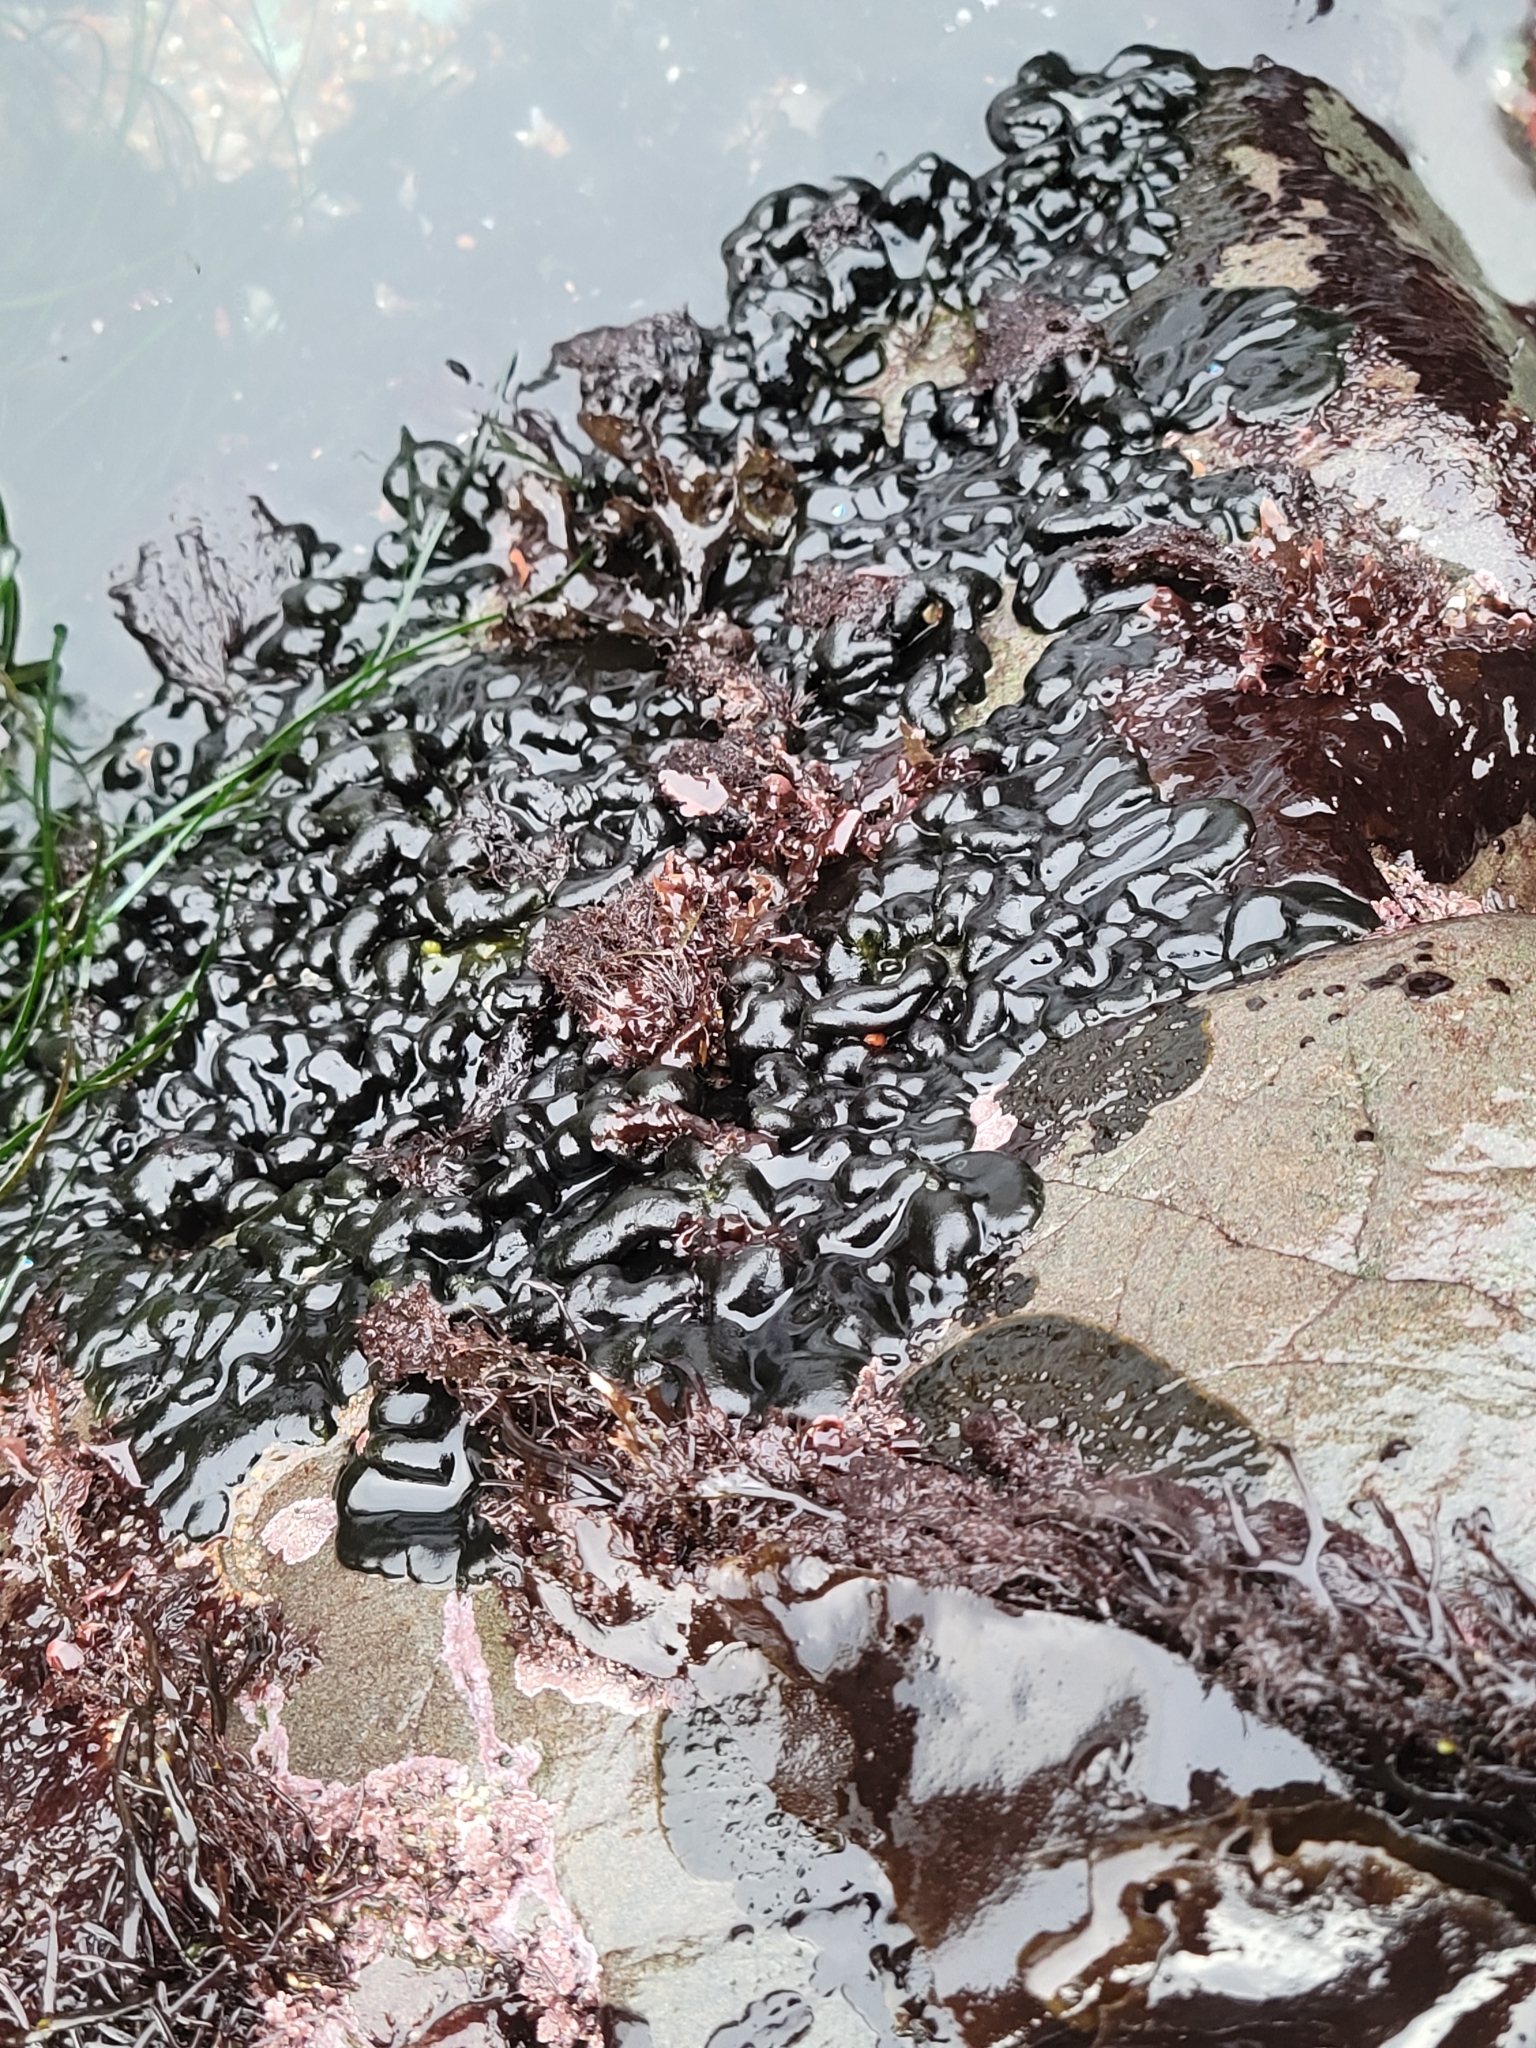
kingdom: Plantae
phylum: Chlorophyta
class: Ulvophyceae
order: Bryopsidales
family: Codiaceae
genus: Codium
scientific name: Codium setchellii
